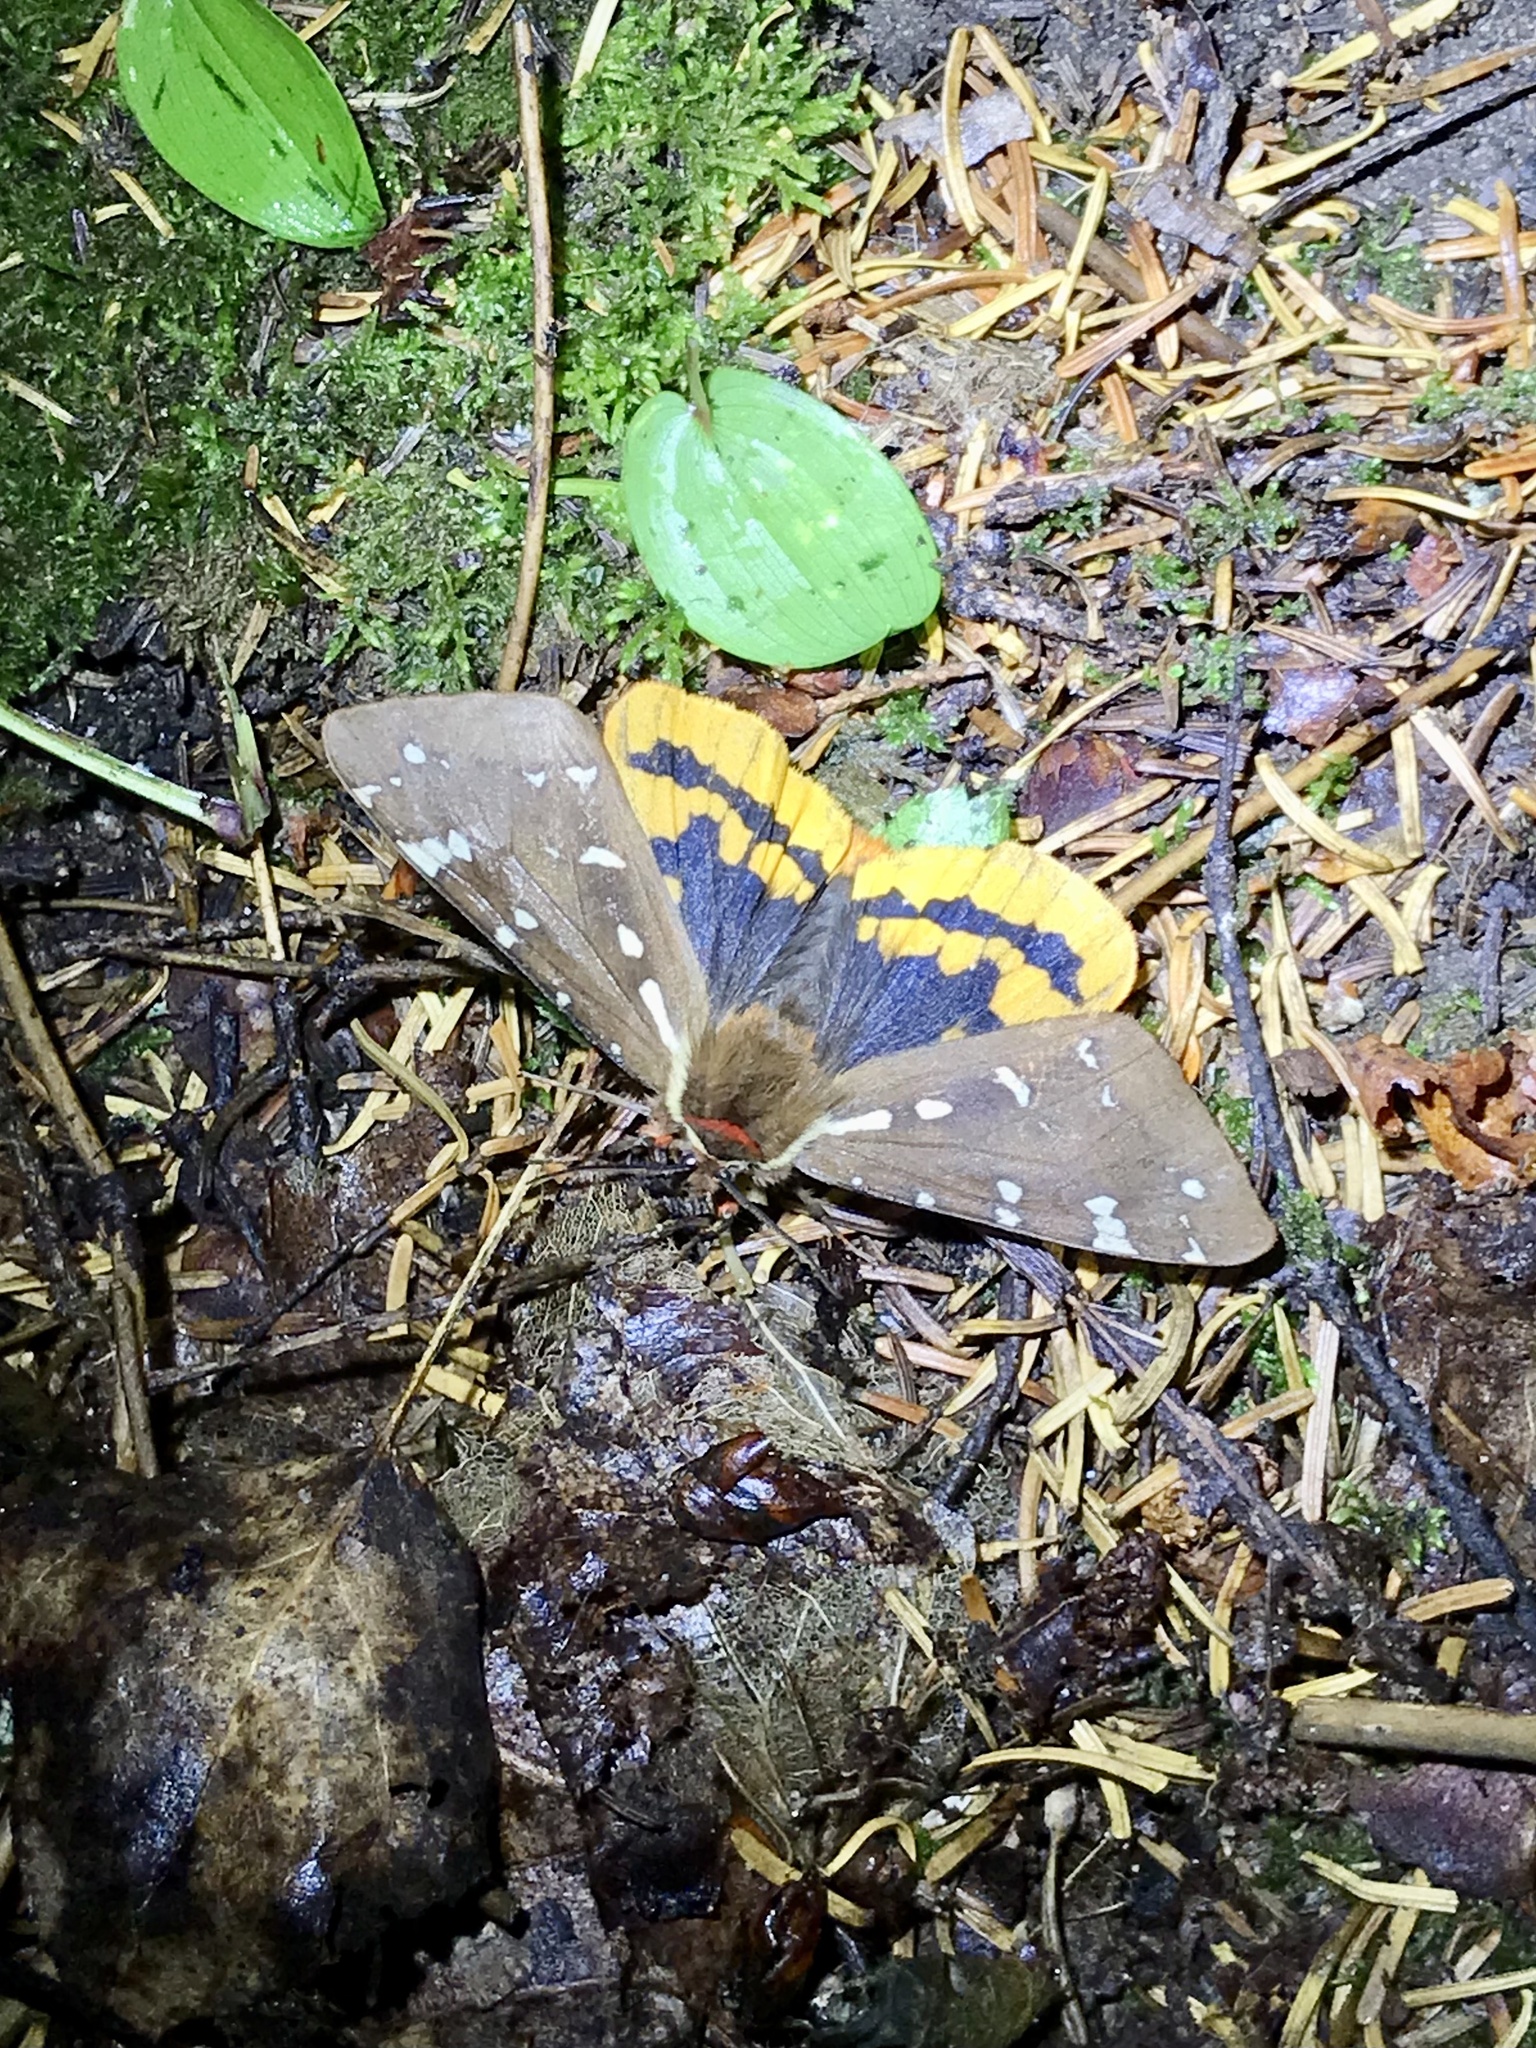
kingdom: Animalia
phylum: Arthropoda
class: Insecta
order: Lepidoptera
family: Erebidae
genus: Arctia
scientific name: Arctia parthenos
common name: St. lawrence tiger moth
